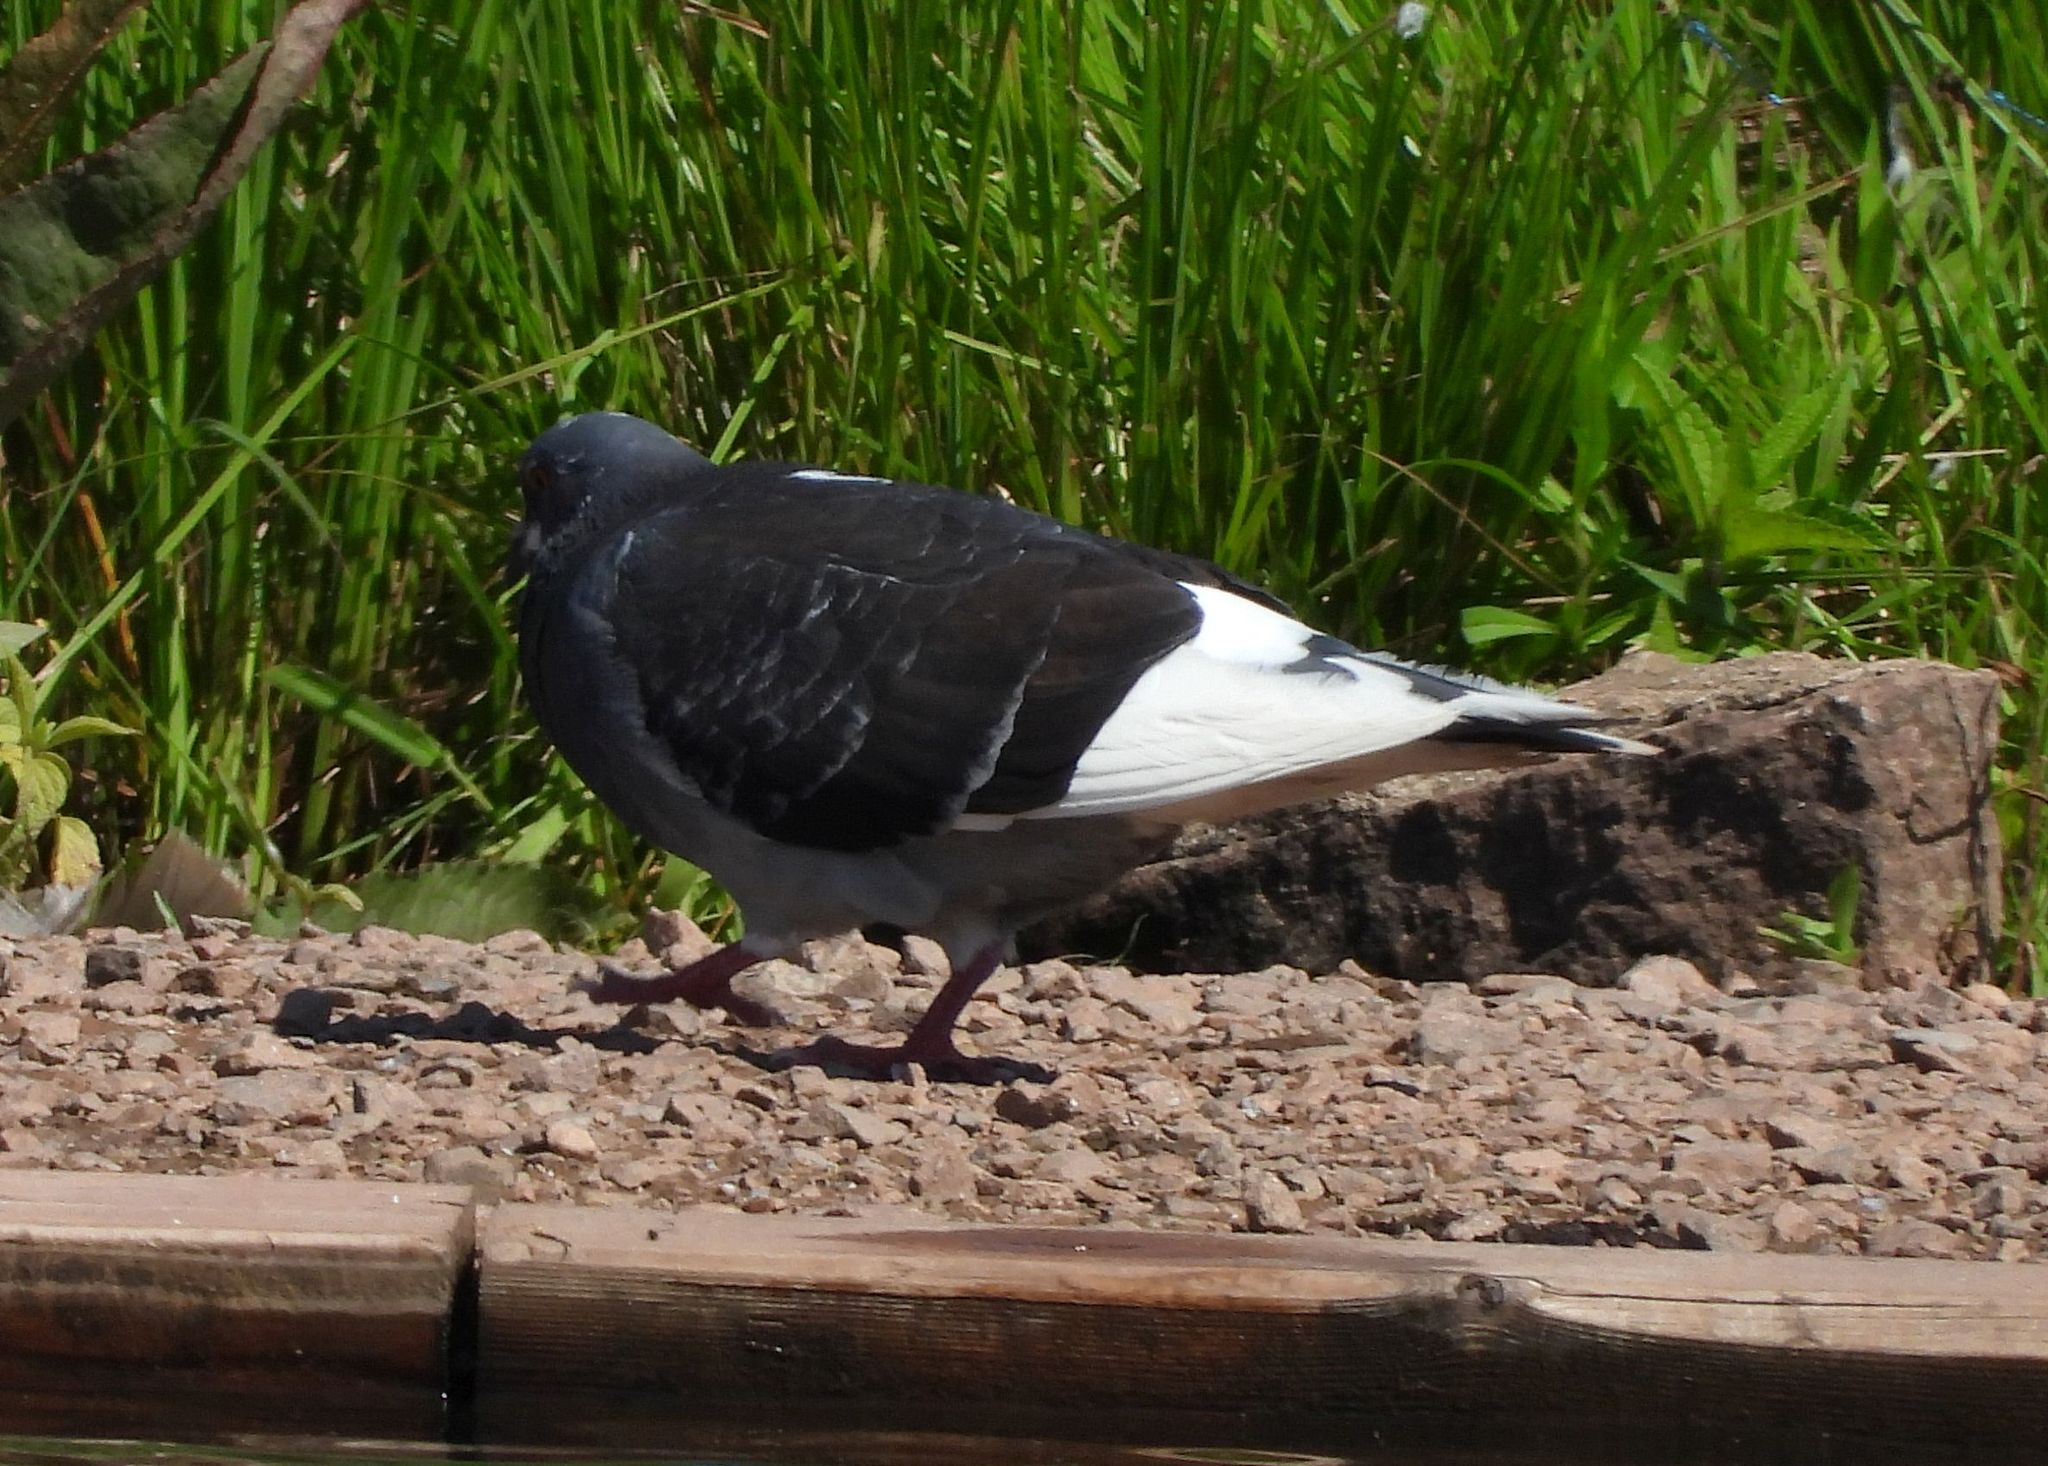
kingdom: Animalia
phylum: Chordata
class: Aves
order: Columbiformes
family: Columbidae
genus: Columba
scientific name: Columba livia
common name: Rock pigeon
